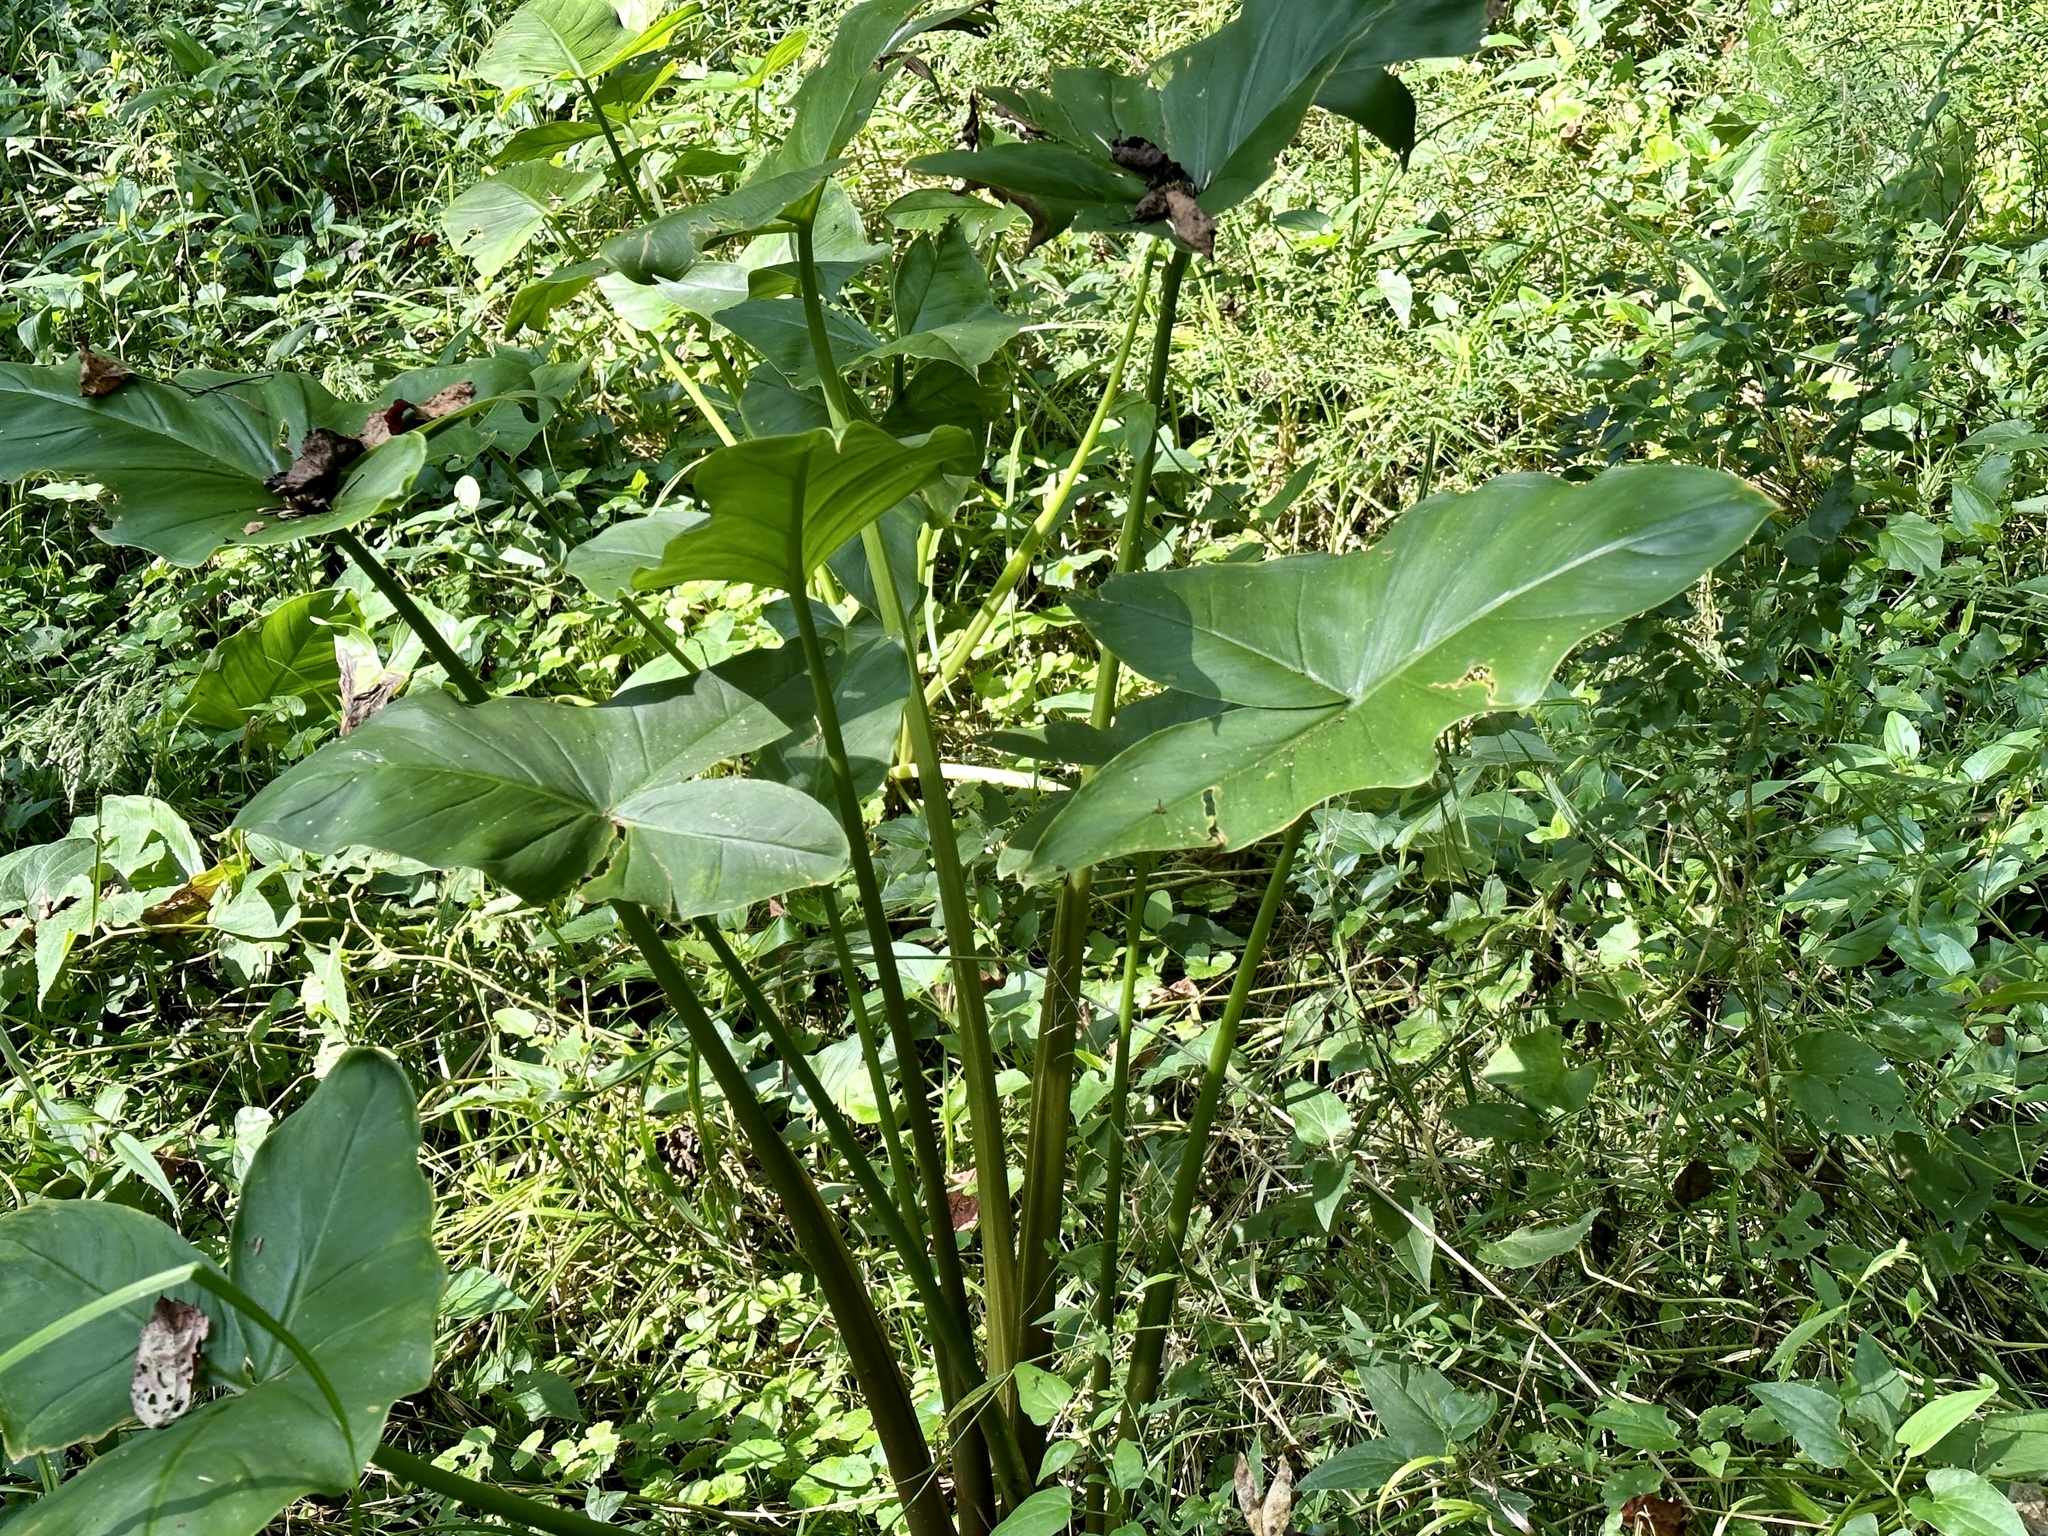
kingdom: Plantae
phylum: Tracheophyta
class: Liliopsida
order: Alismatales
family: Araceae
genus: Peltandra
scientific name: Peltandra virginica
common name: Arrow arum
